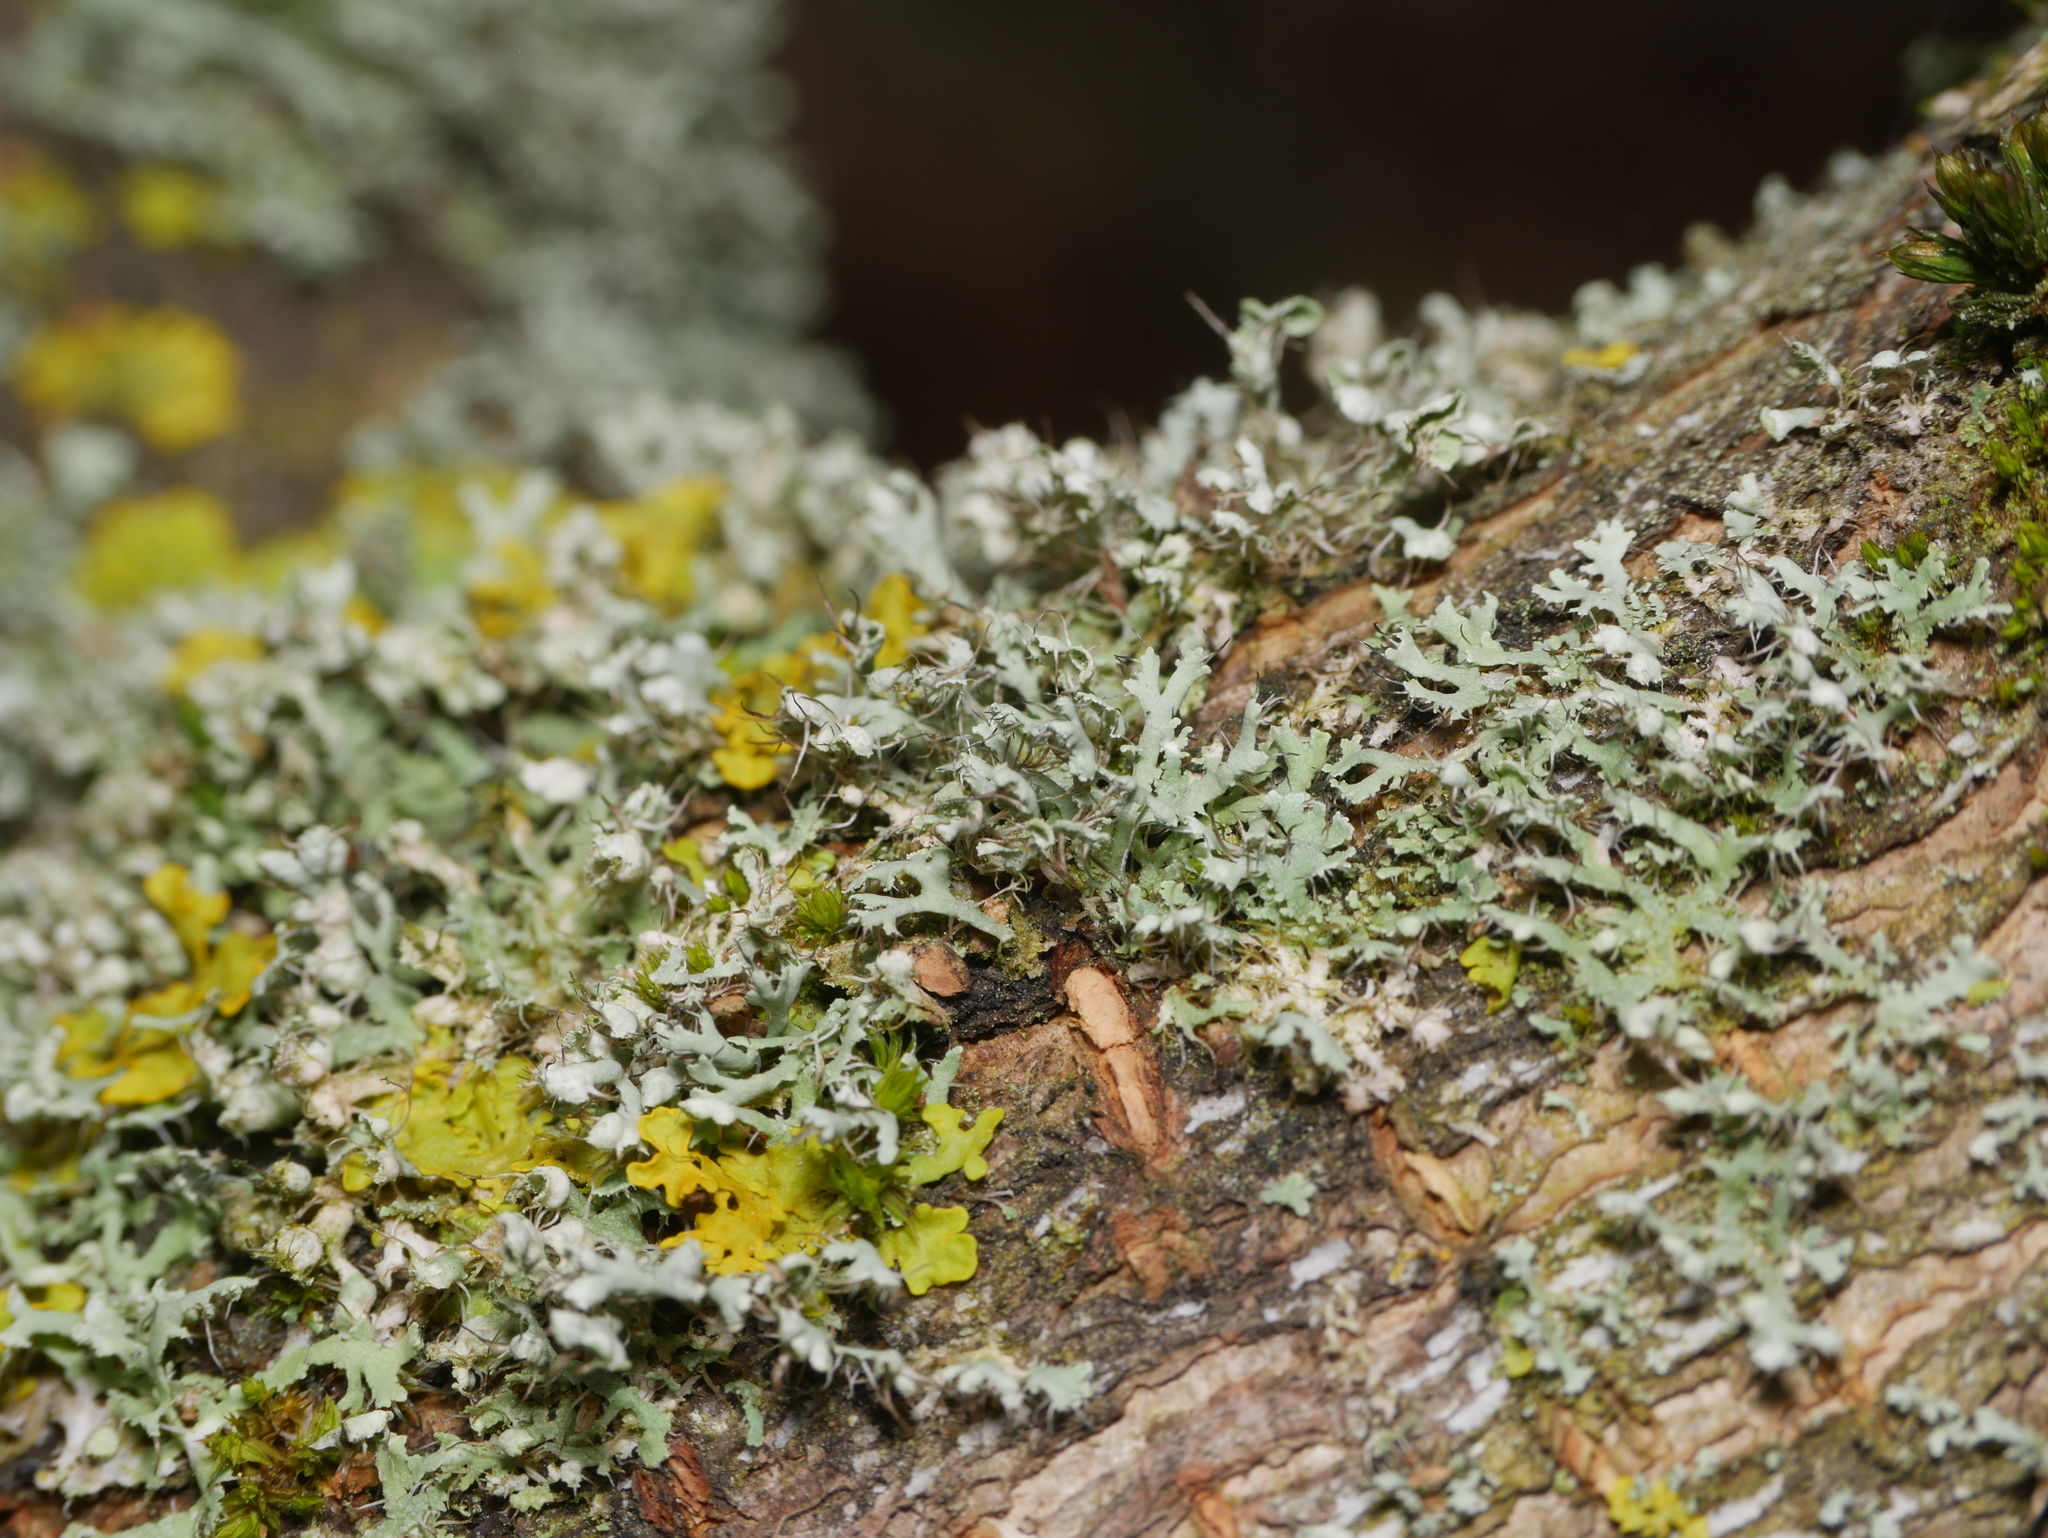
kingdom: Fungi
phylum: Ascomycota
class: Lecanoromycetes
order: Caliciales
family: Physciaceae
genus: Physcia
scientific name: Physcia adscendens
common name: Hooded rosette lichen
